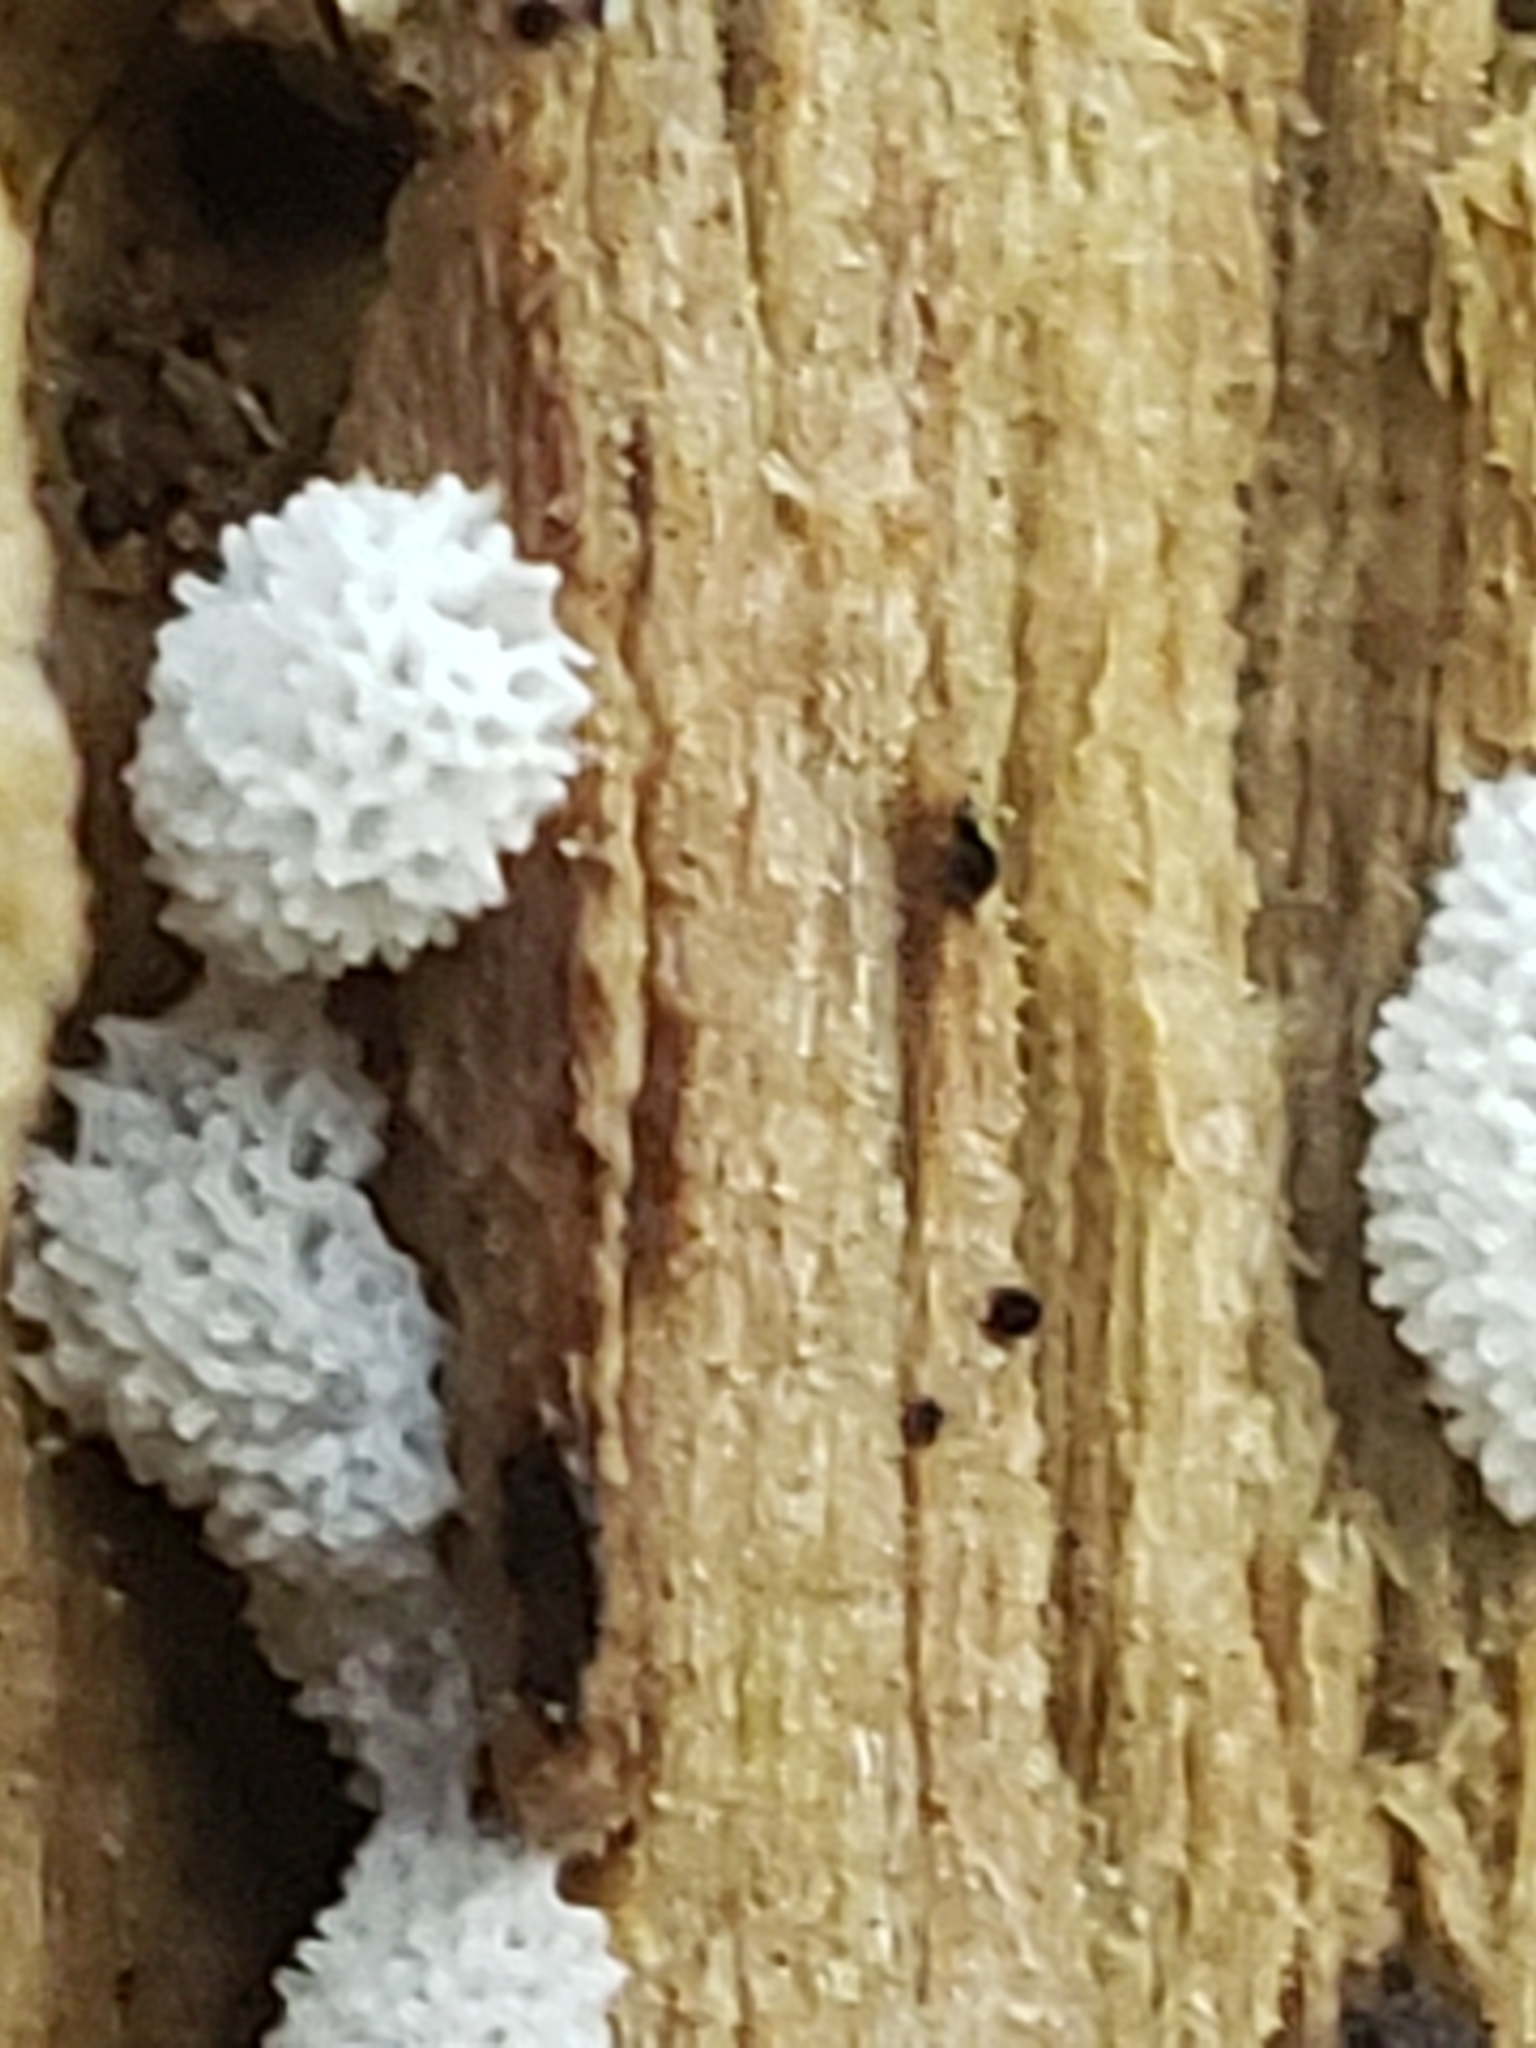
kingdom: Protozoa
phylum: Mycetozoa
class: Protosteliomycetes
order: Ceratiomyxales
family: Ceratiomyxaceae
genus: Ceratiomyxa
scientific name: Ceratiomyxa fruticulosa
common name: Honeycomb coral slime mold
